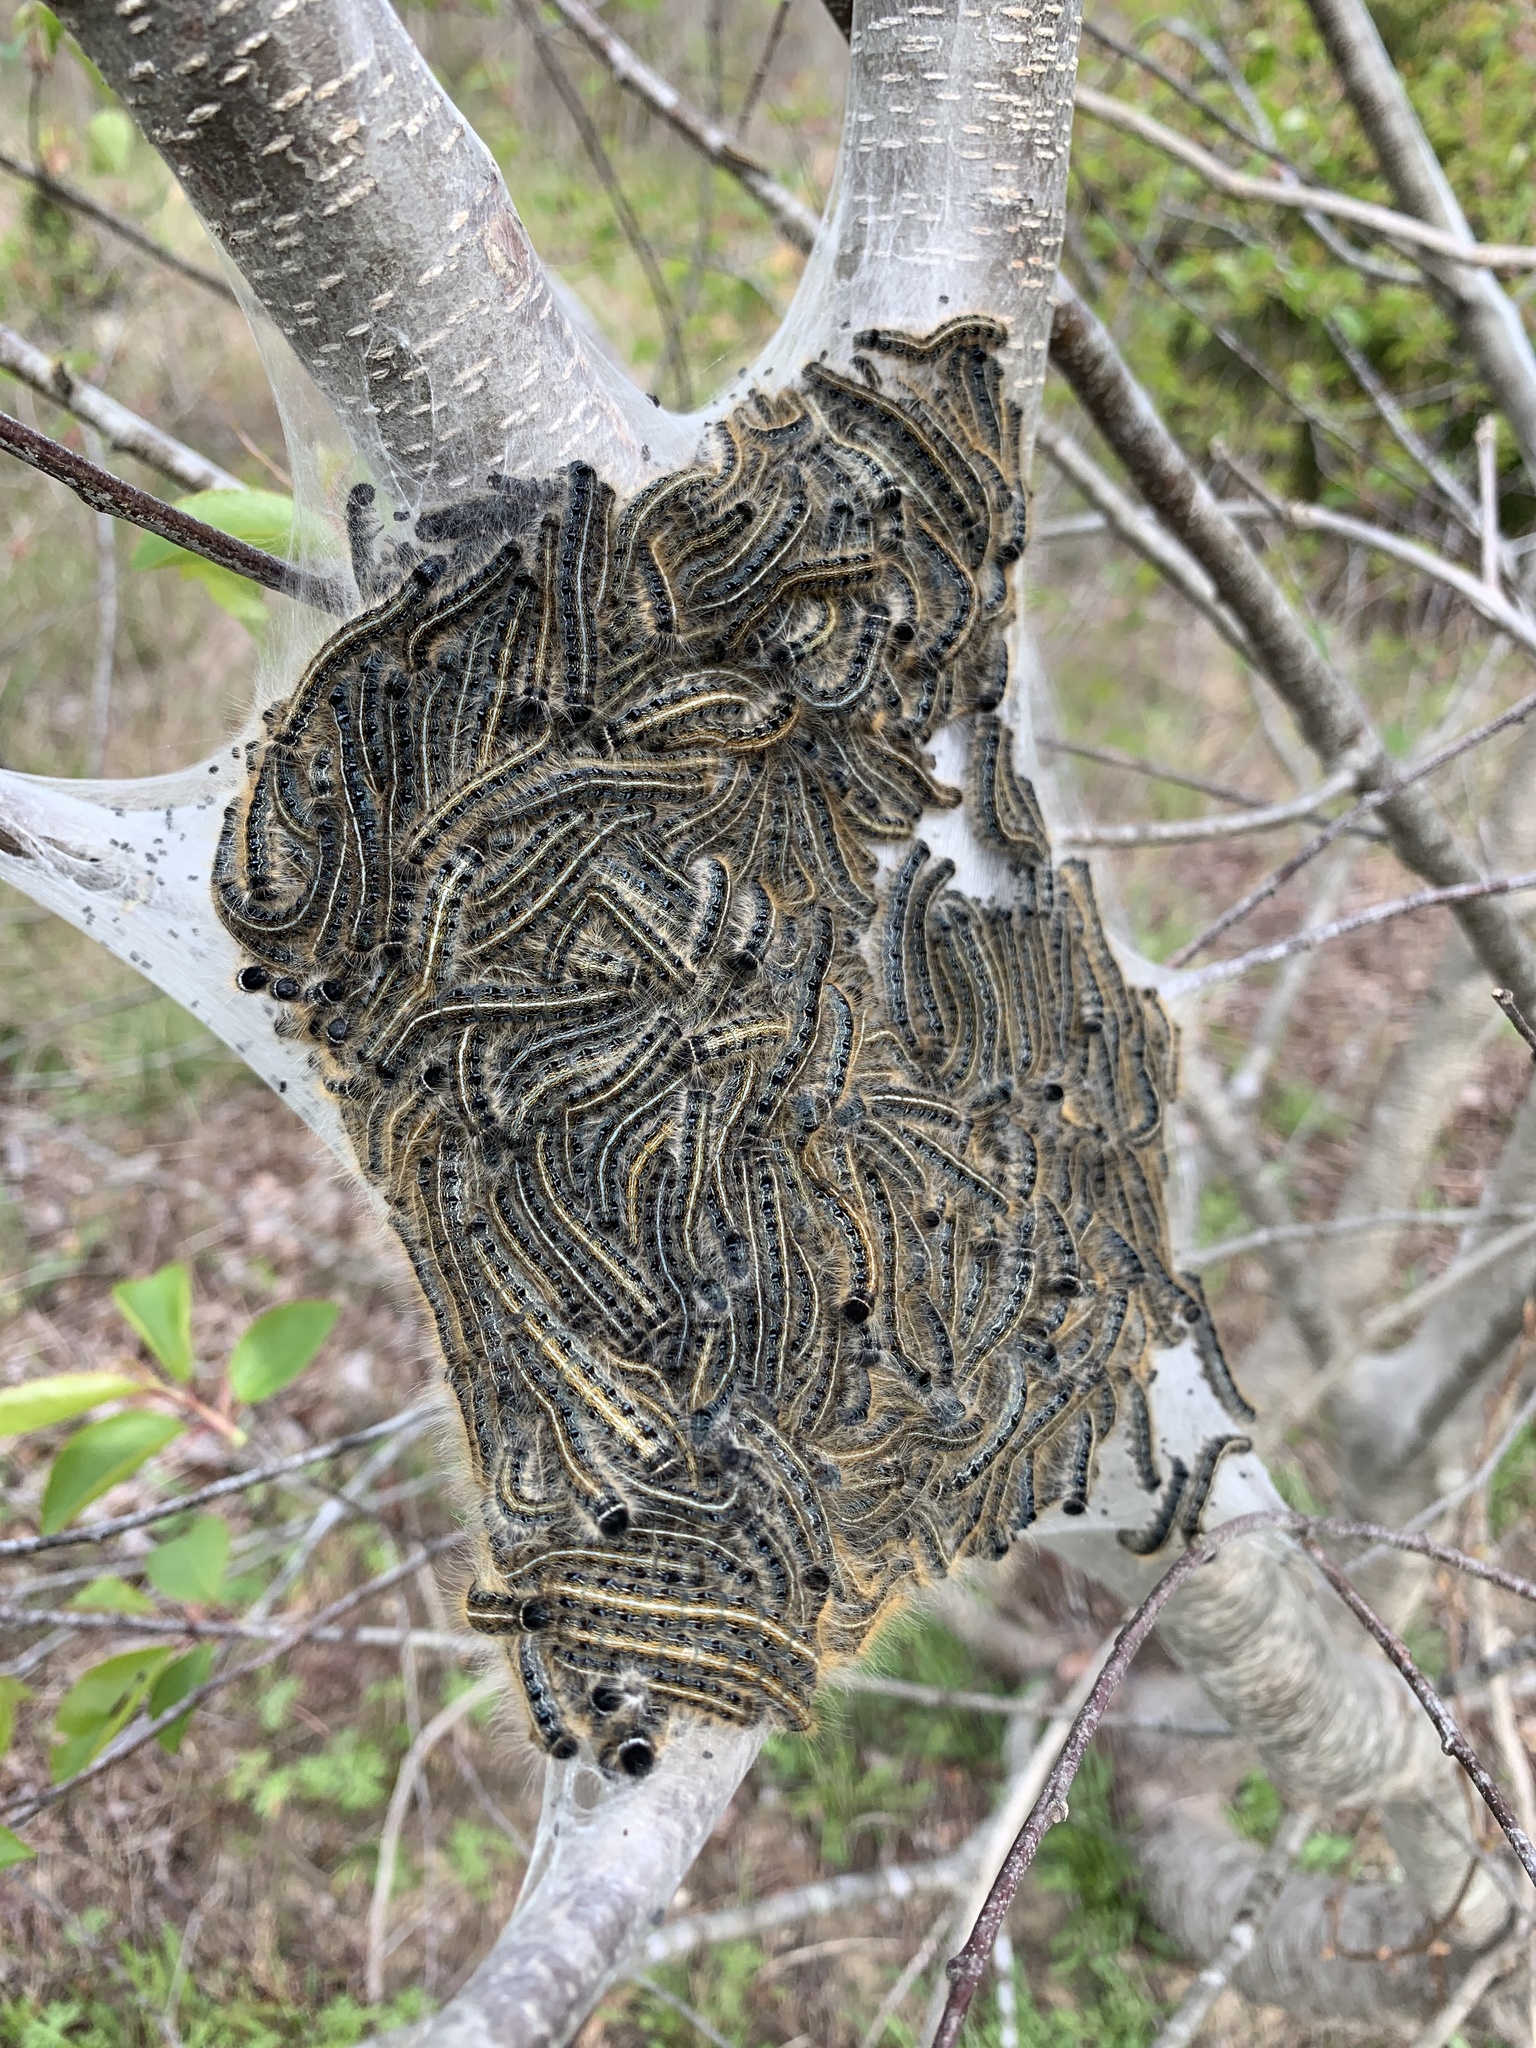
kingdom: Animalia
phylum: Arthropoda
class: Insecta
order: Lepidoptera
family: Lasiocampidae
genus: Malacosoma
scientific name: Malacosoma americana
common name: Eastern tent caterpillar moth
